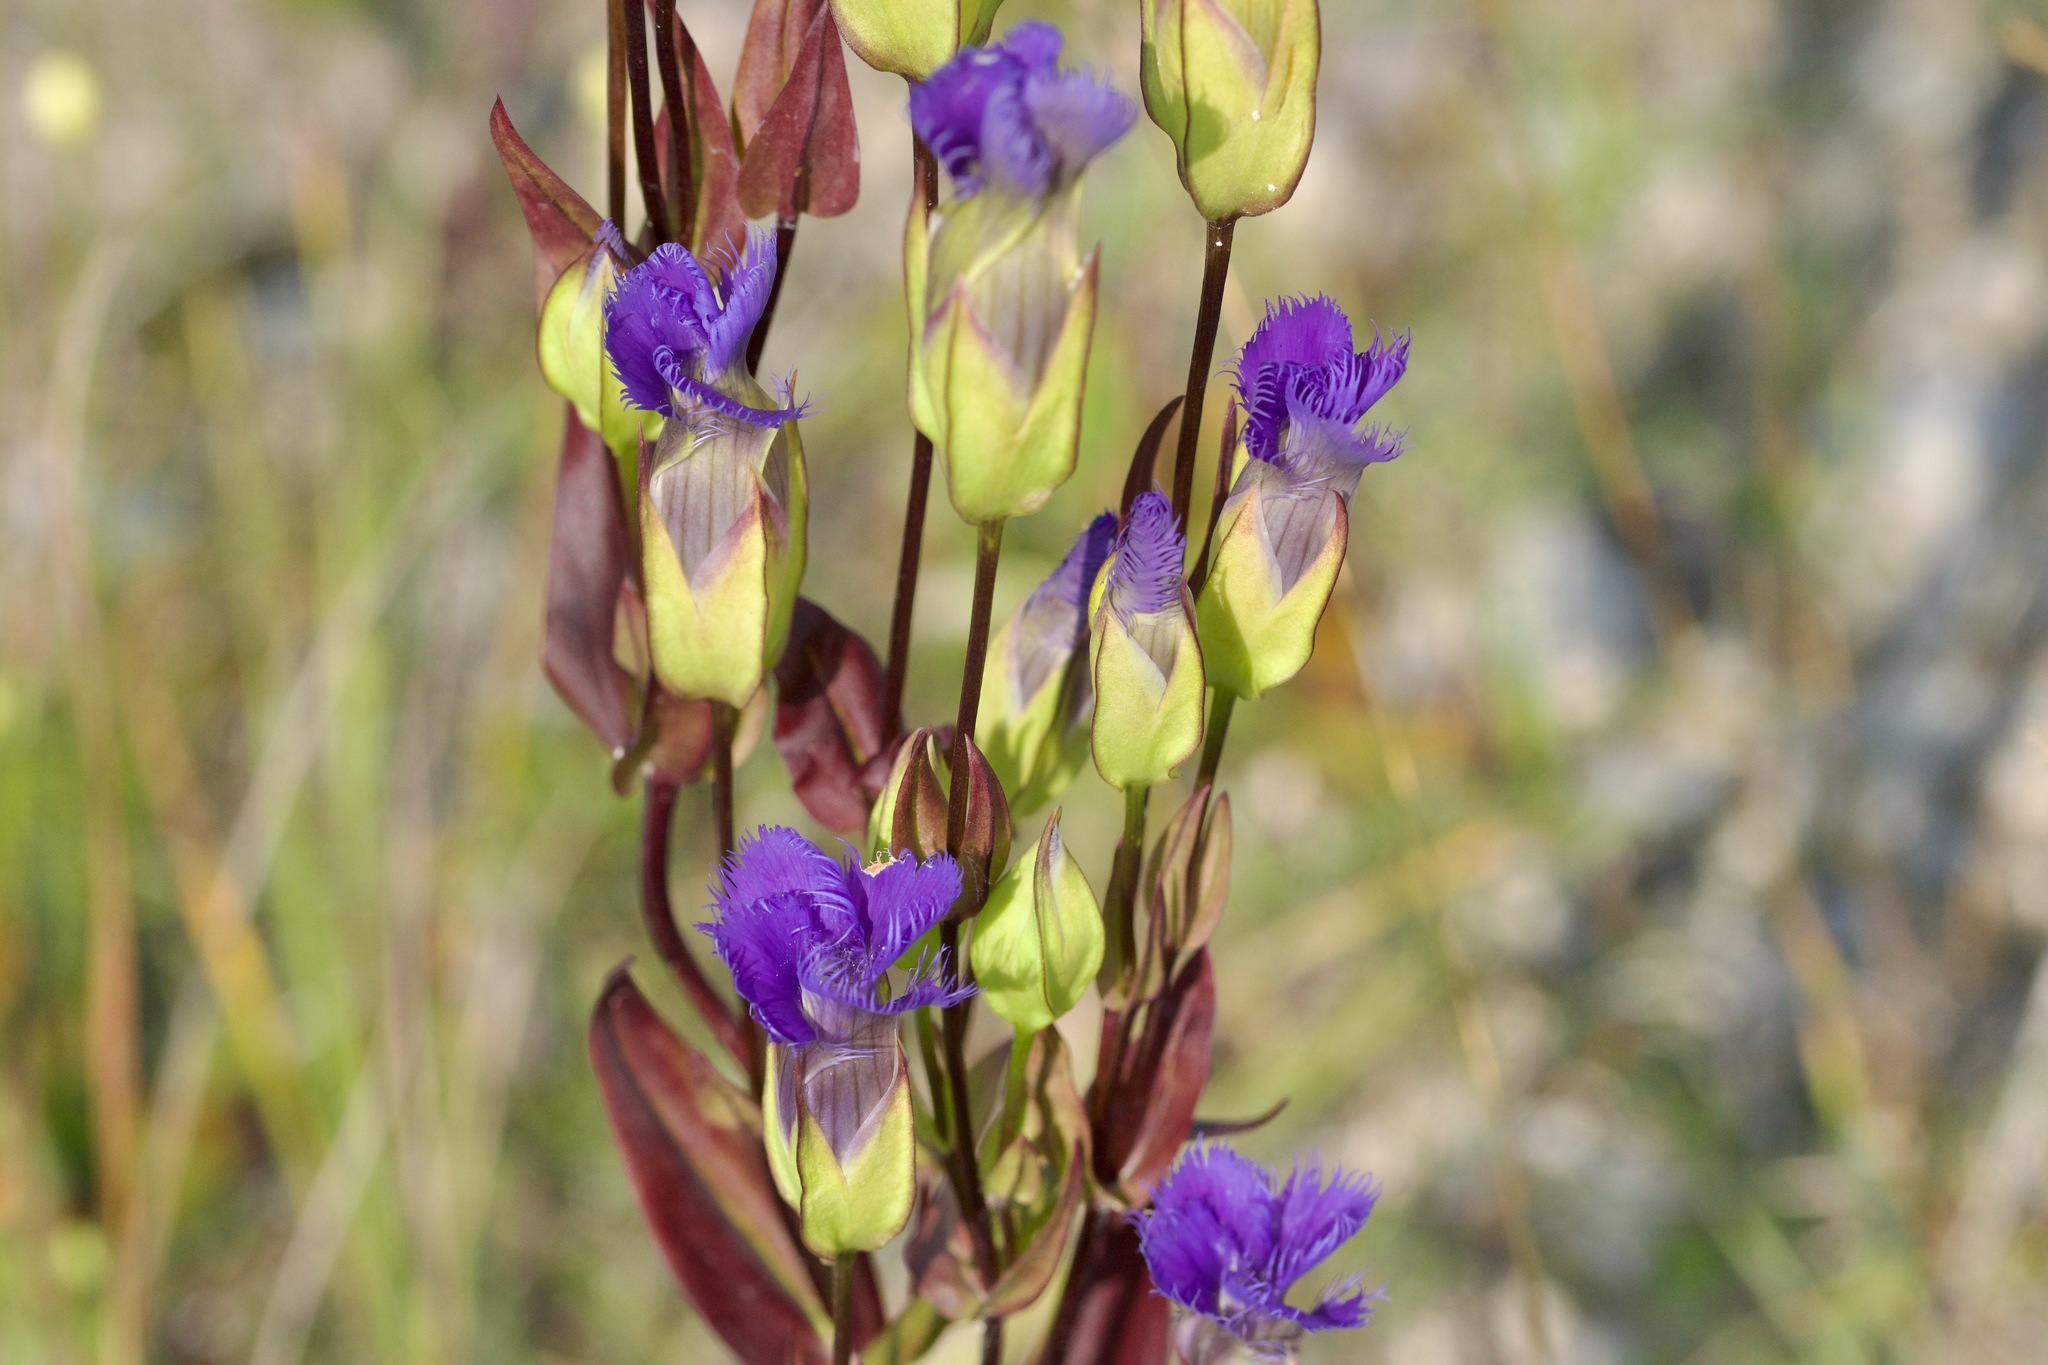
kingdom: Plantae
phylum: Tracheophyta
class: Magnoliopsida
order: Gentianales
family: Gentianaceae
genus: Gentianopsis
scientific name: Gentianopsis crinita
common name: Fringed-gentian
